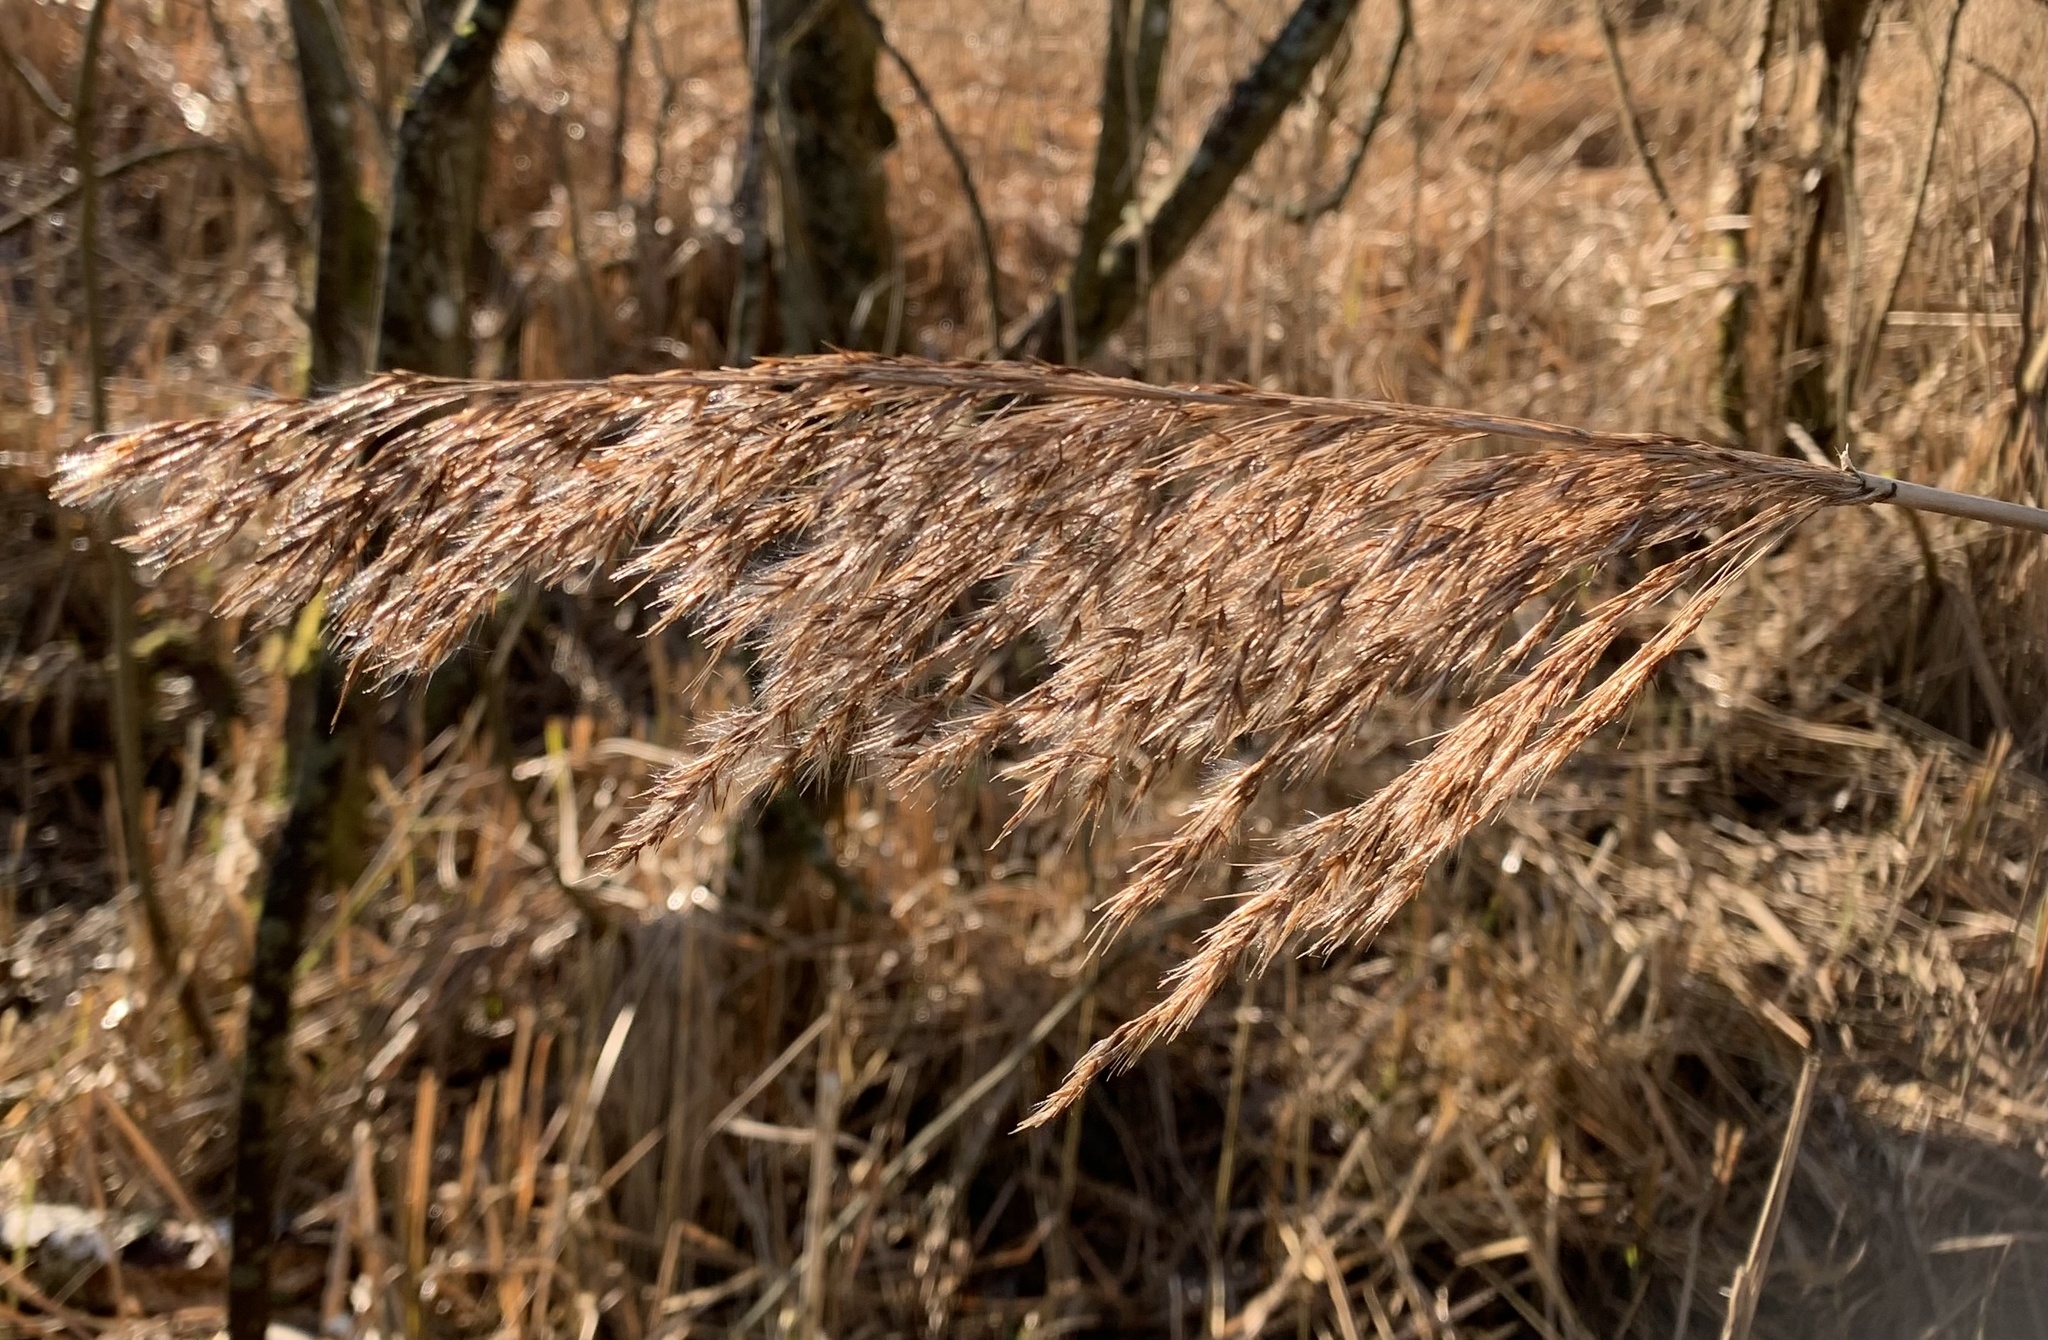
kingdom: Plantae
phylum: Tracheophyta
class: Liliopsida
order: Poales
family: Poaceae
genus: Phragmites
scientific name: Phragmites australis
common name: Common reed
